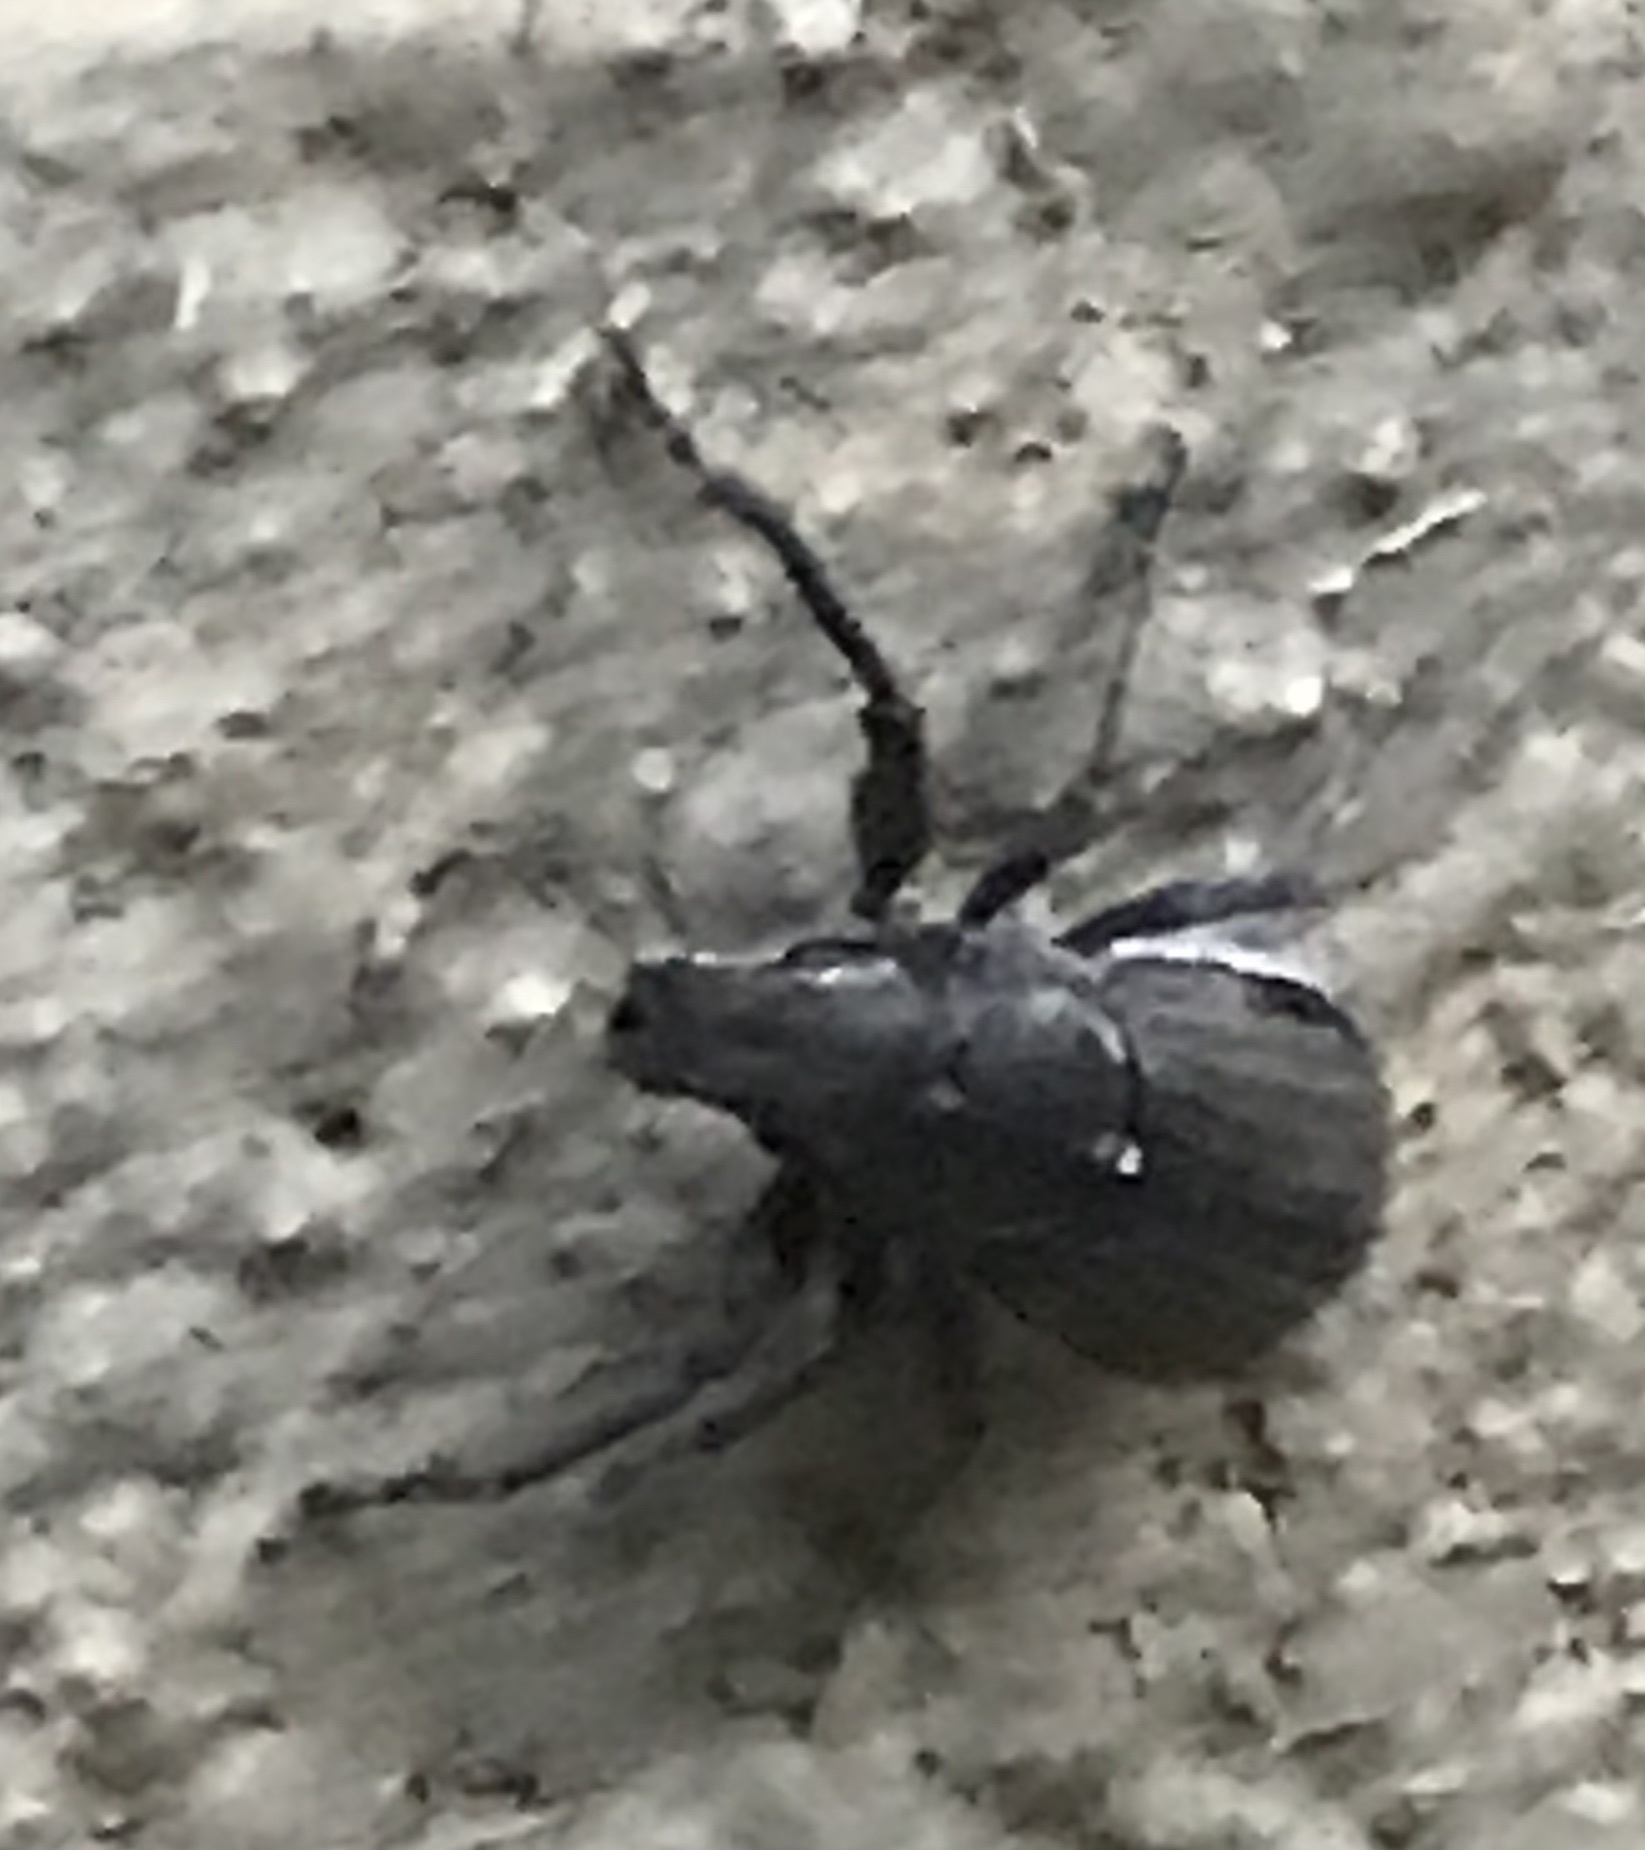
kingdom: Animalia
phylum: Arthropoda
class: Insecta
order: Coleoptera
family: Curculionidae
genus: Naupactus
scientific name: Naupactus leucoloma
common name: Whitefringed beetle
